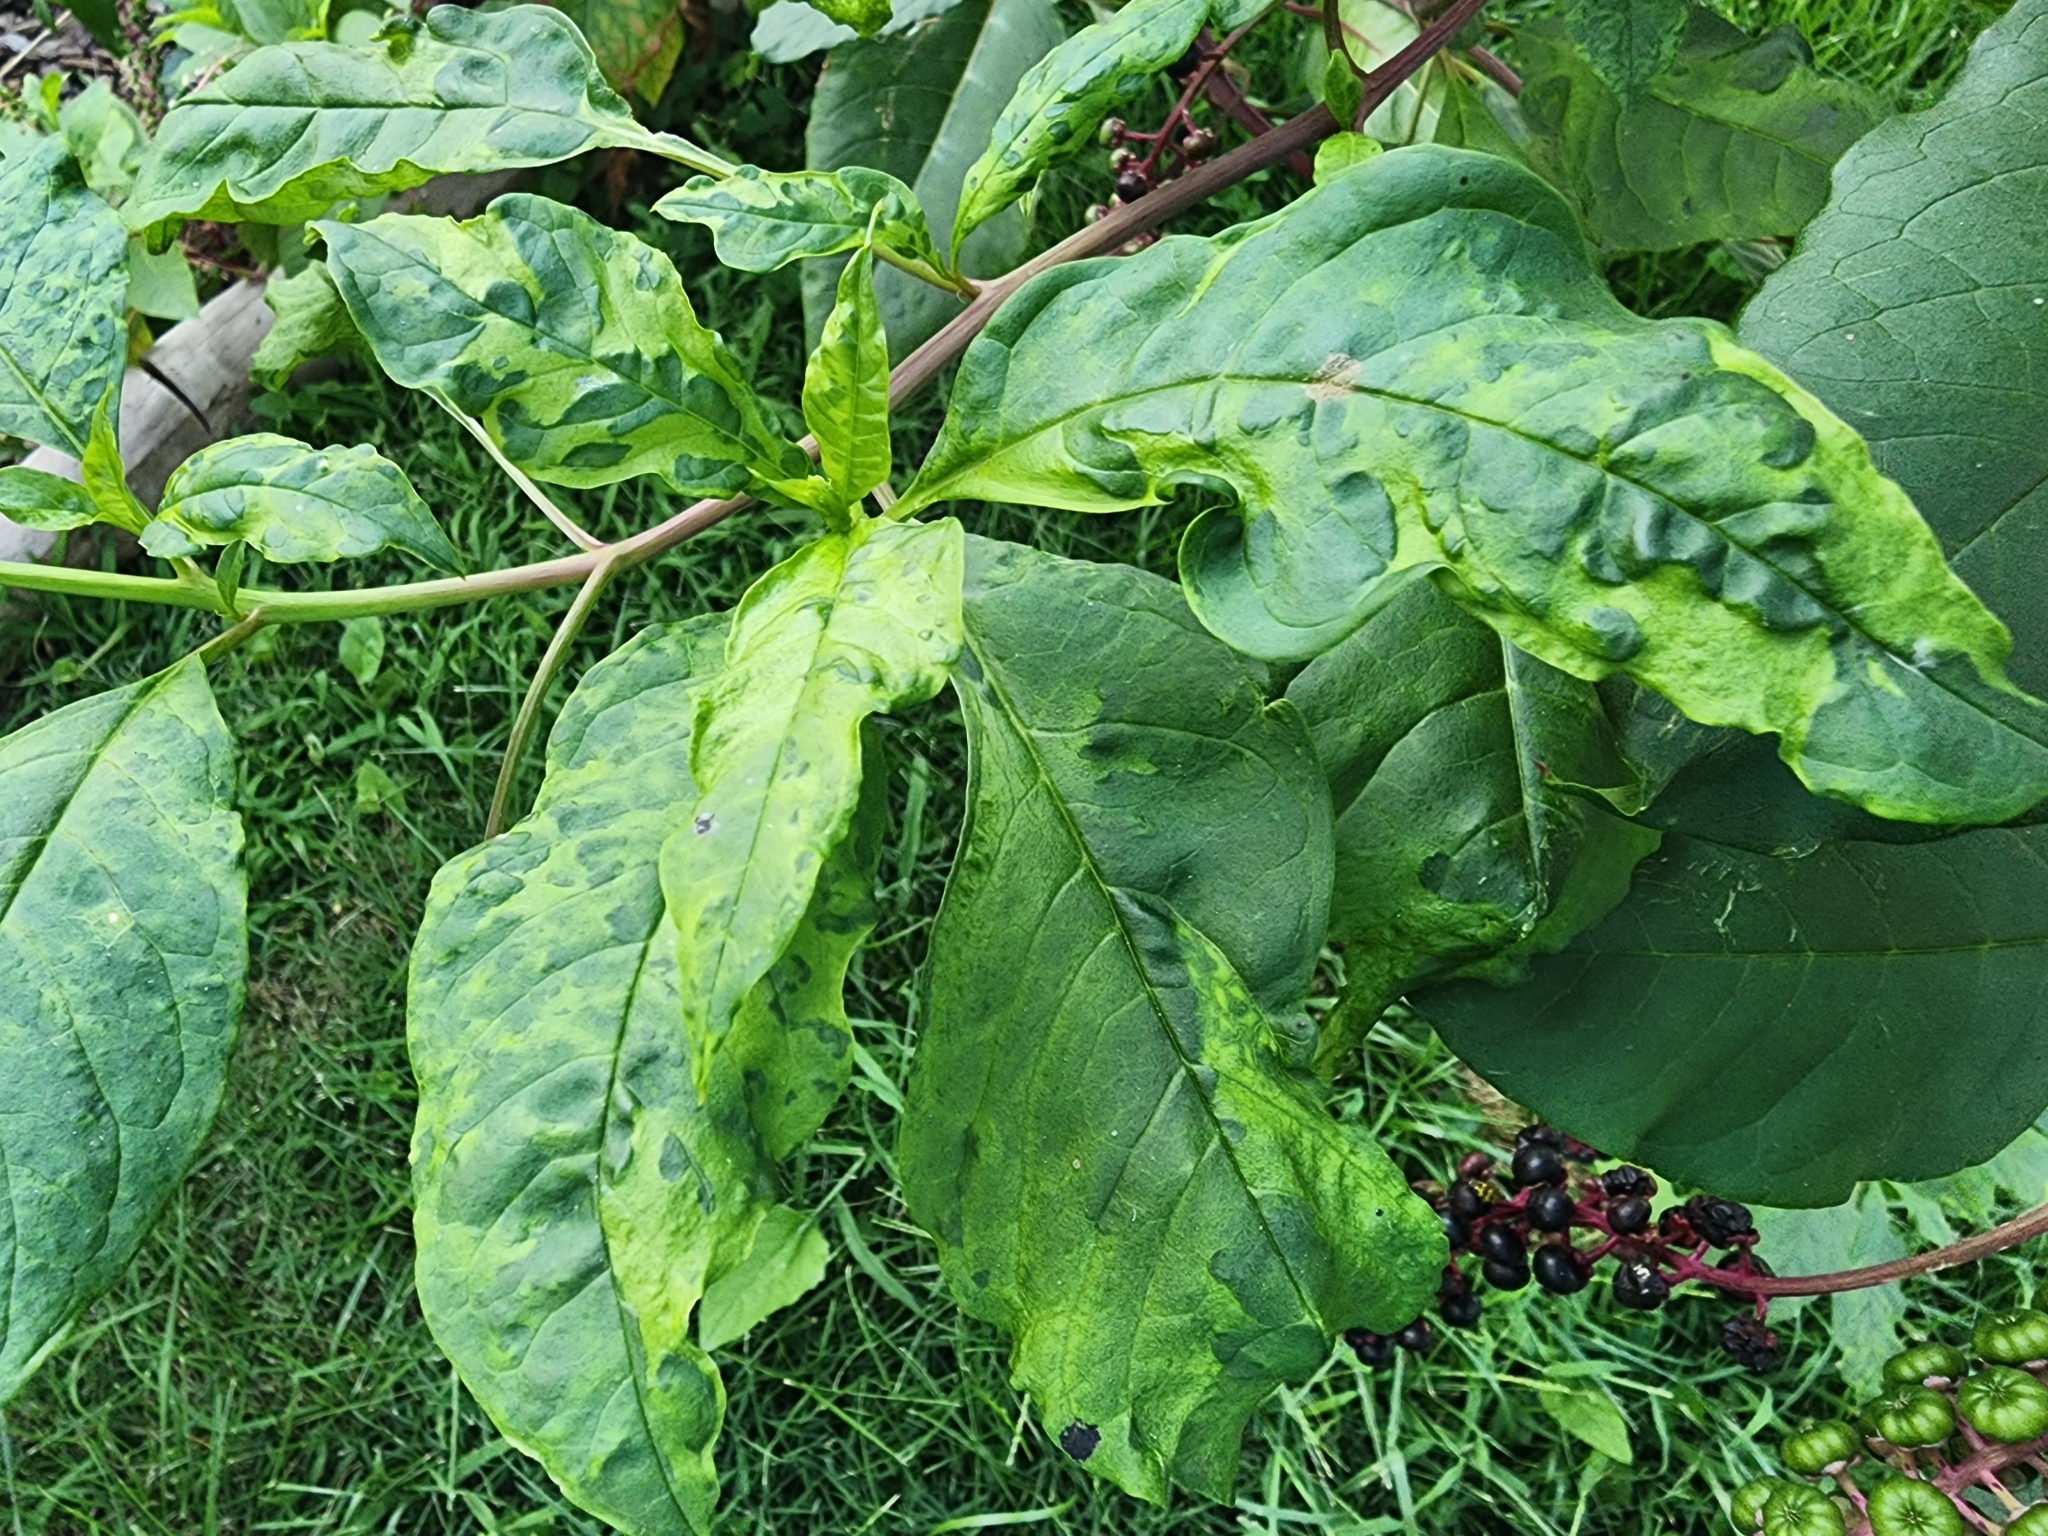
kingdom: Viruses
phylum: Pisuviricota
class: Stelpaviricetes
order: Patatavirales
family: Potyviridae
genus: Potyvirus
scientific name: Potyvirus Pokeweed mosaic virus
